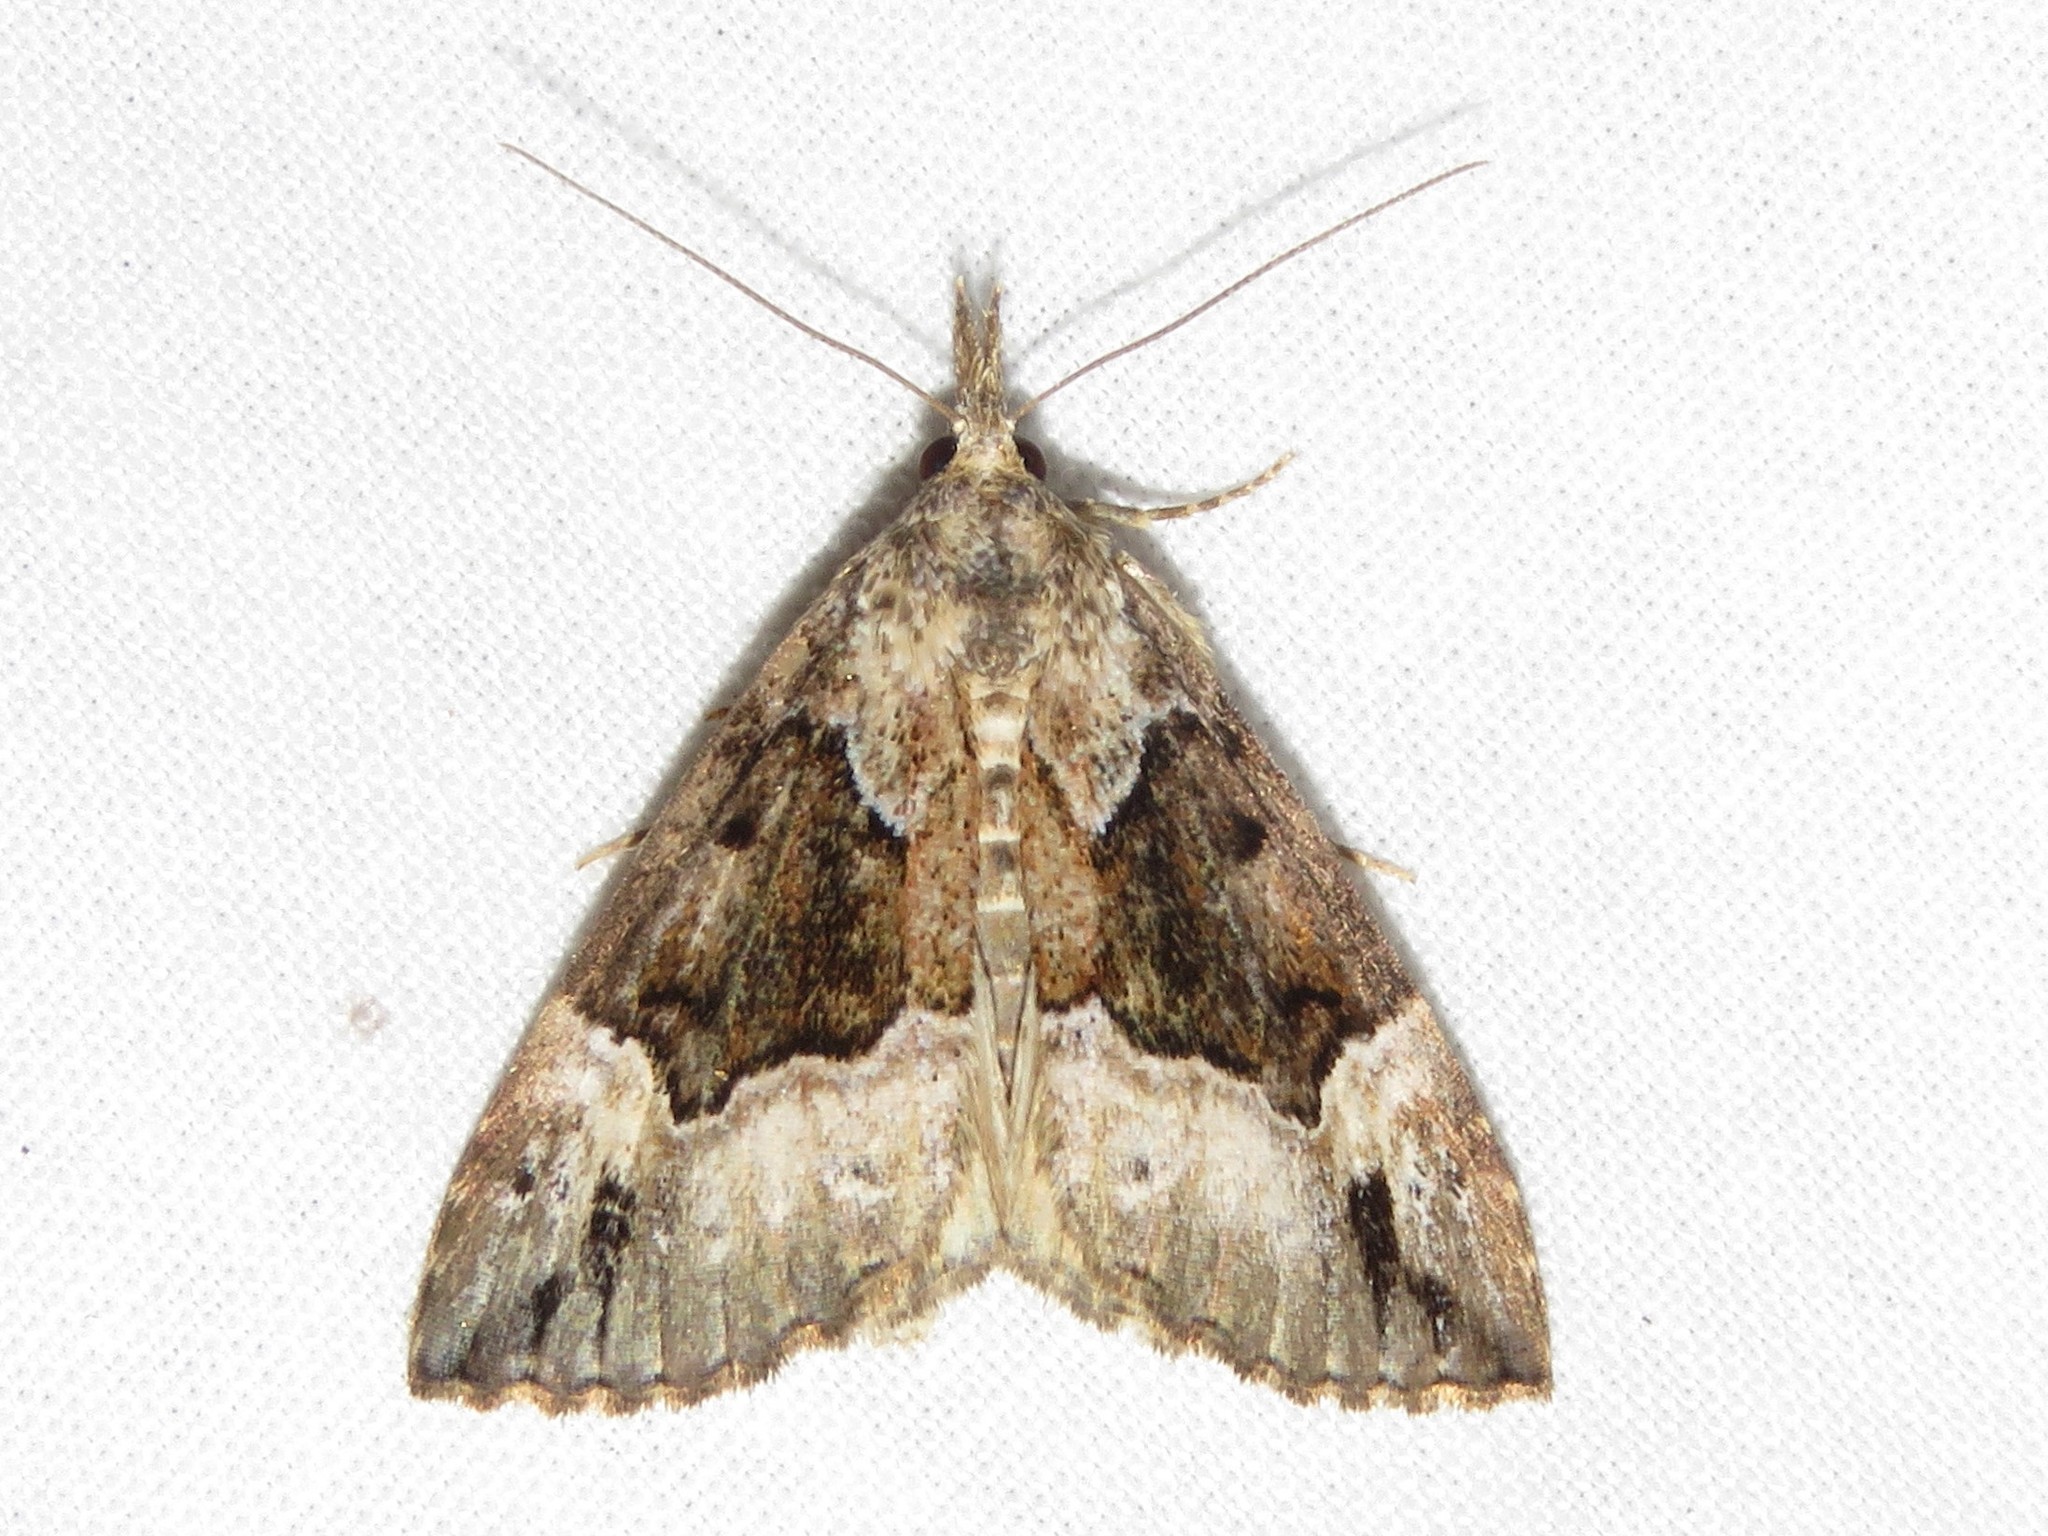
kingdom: Animalia
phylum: Arthropoda
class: Insecta
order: Lepidoptera
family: Erebidae
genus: Hypena
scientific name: Hypena palparia
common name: Mottled bomolocha moth
